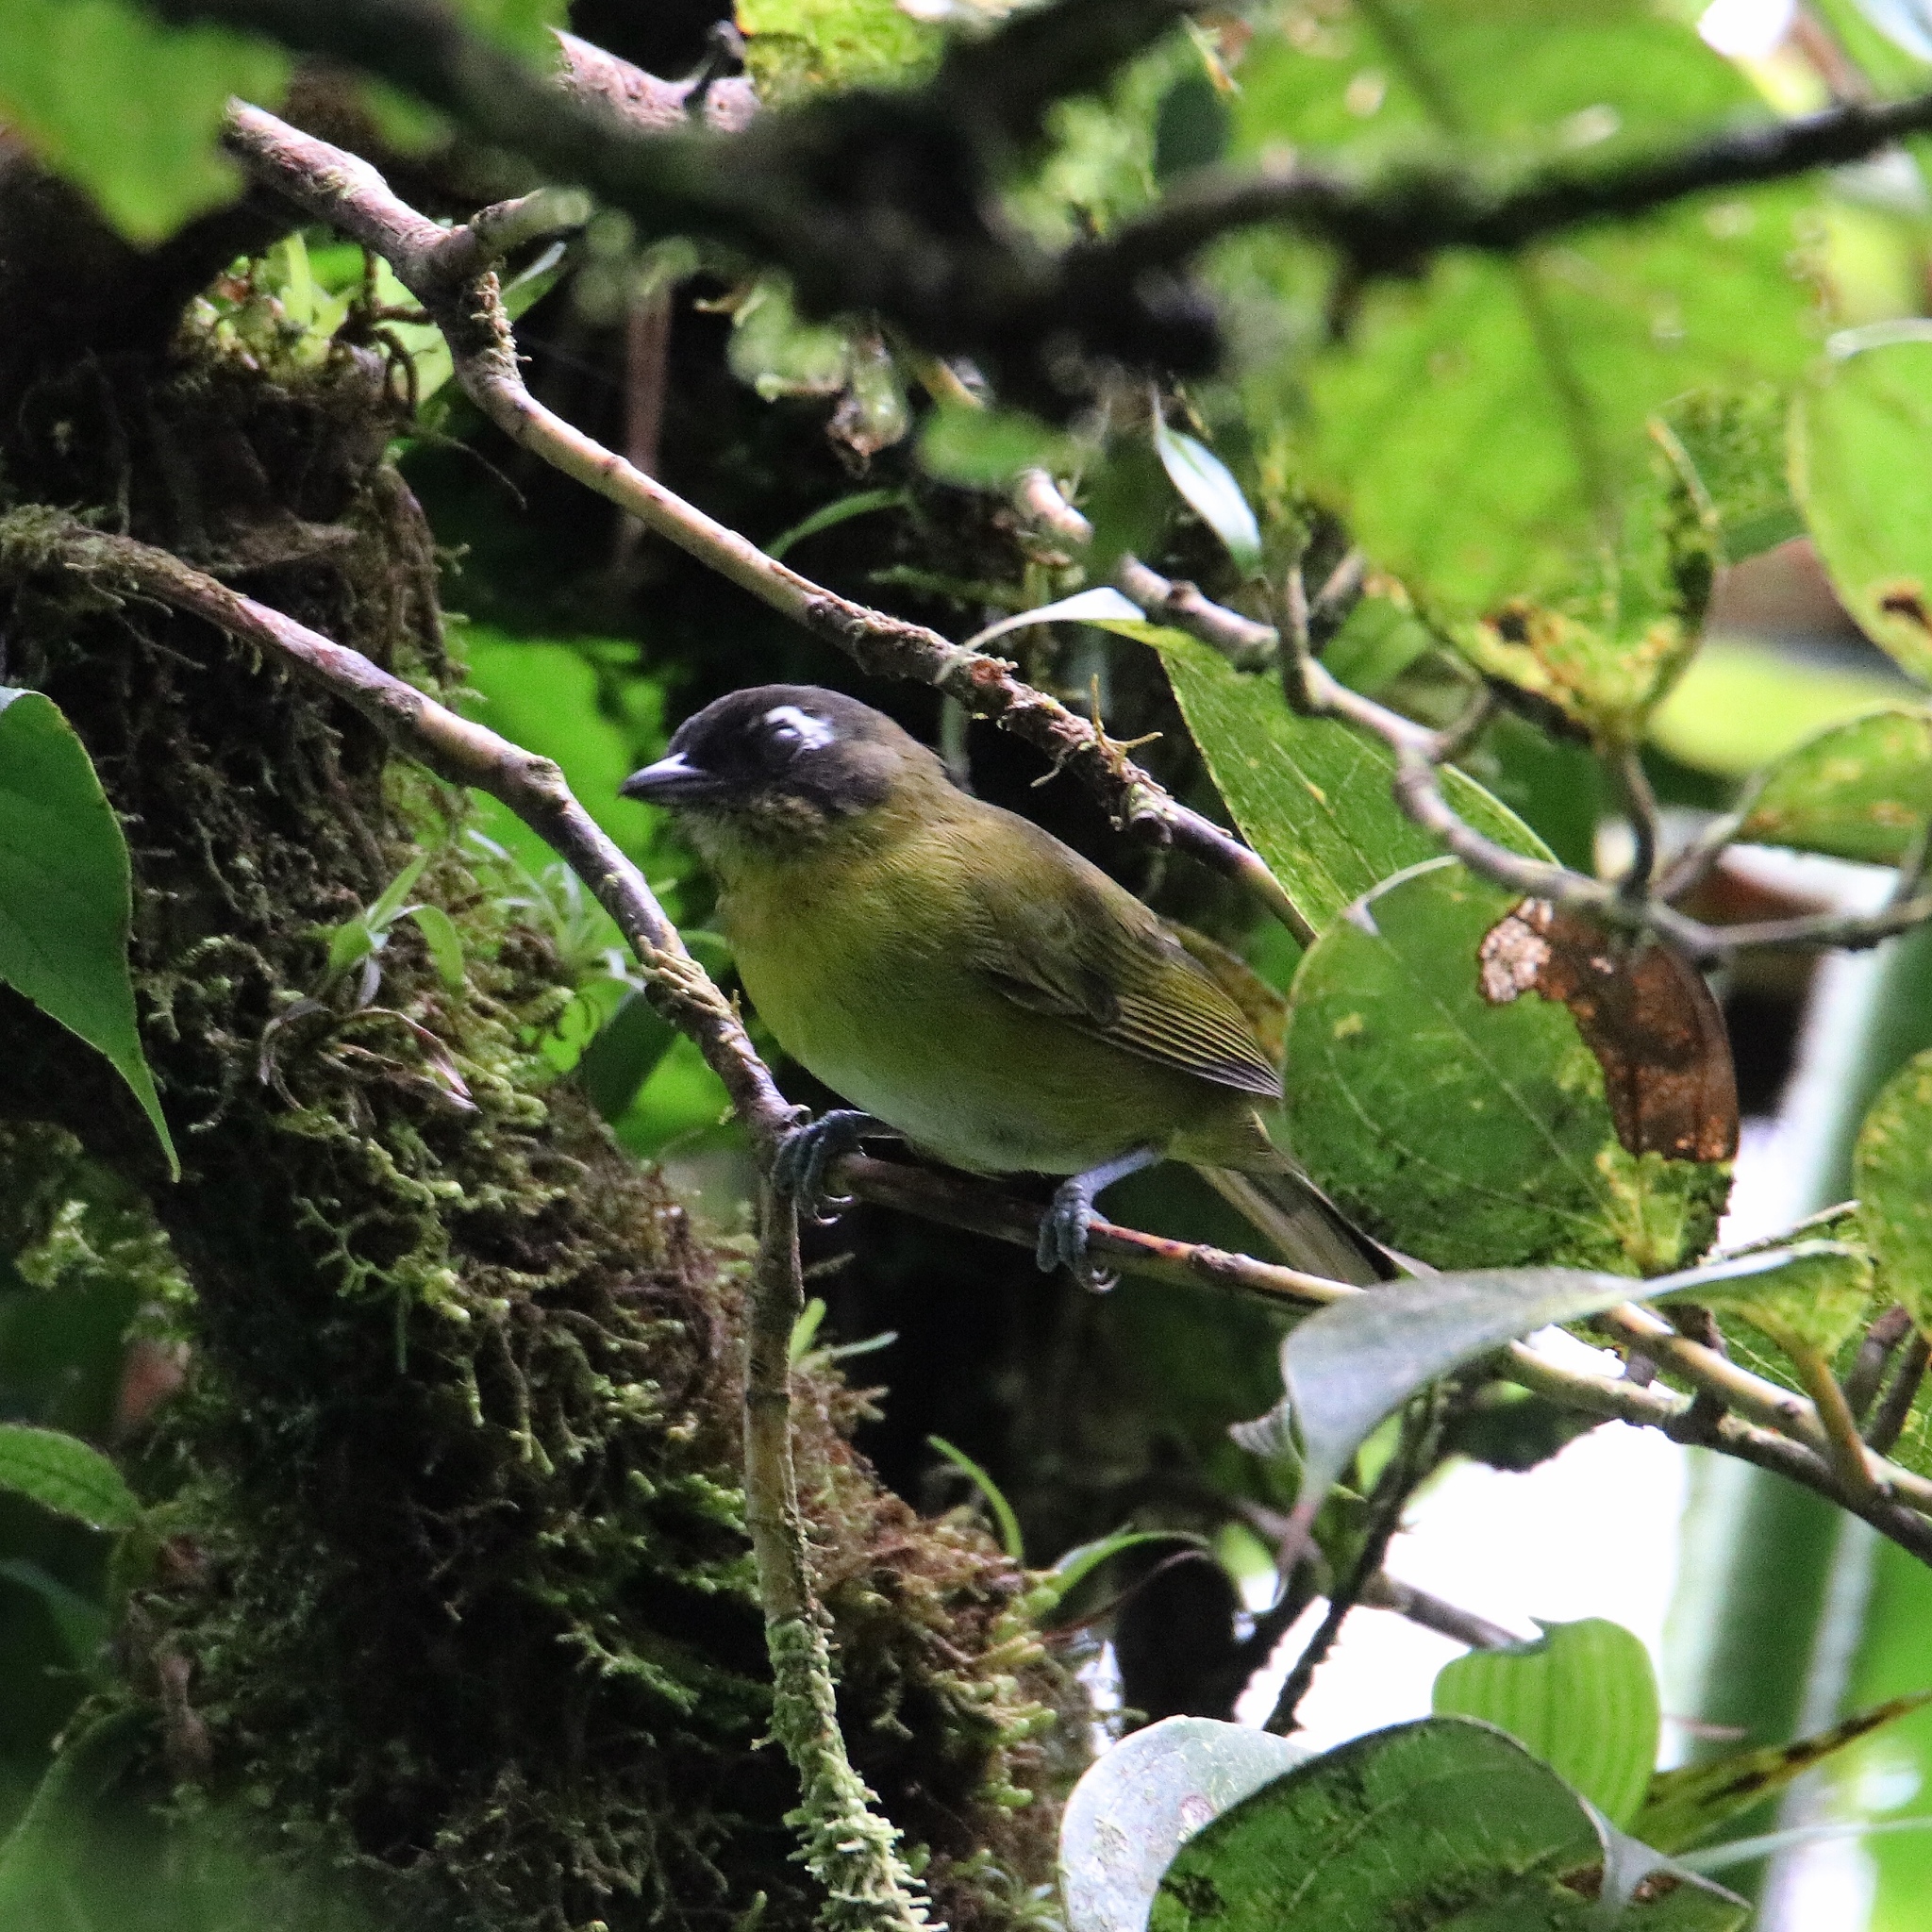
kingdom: Animalia
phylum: Chordata
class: Aves
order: Passeriformes
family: Passerellidae
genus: Chlorospingus
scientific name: Chlorospingus flavopectus
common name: Common chlorospingus
